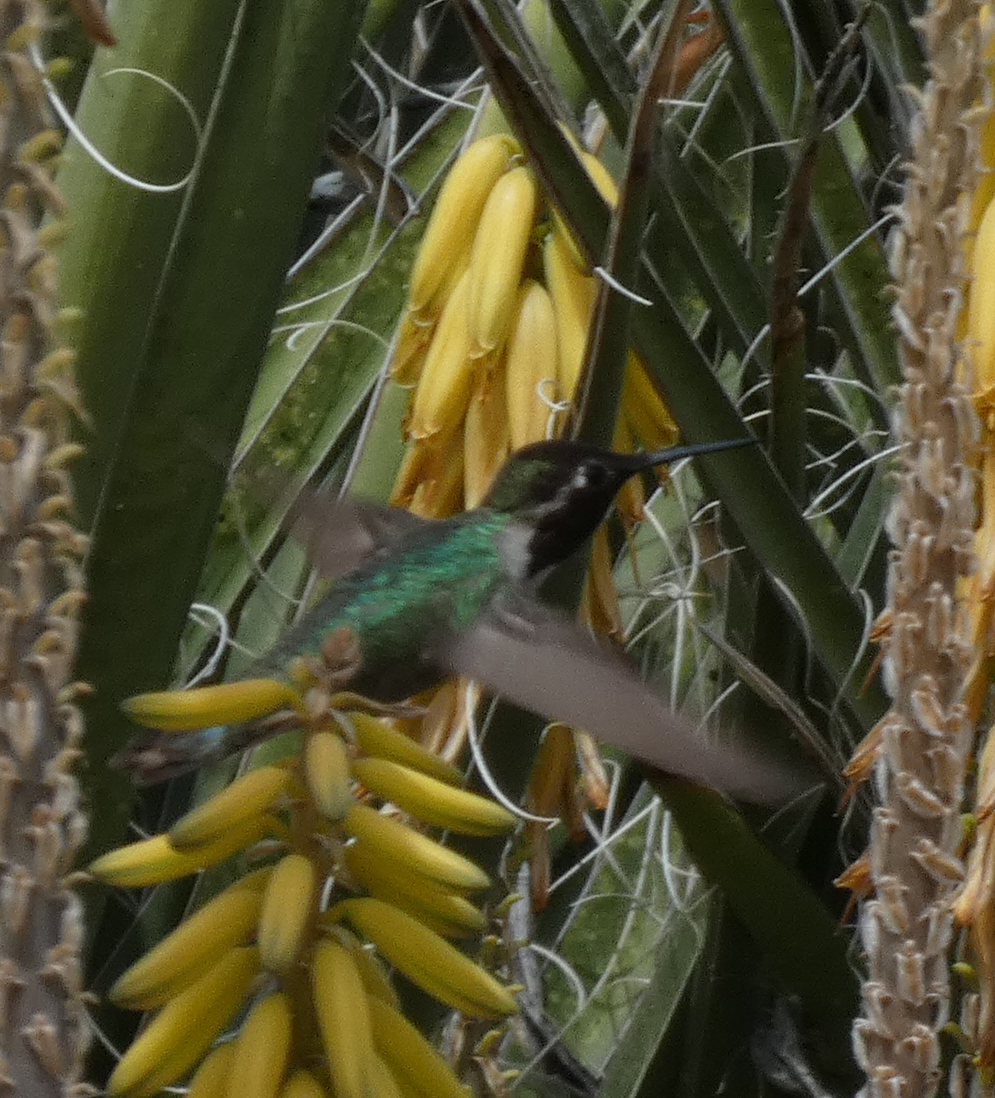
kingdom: Animalia
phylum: Chordata
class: Aves
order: Apodiformes
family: Trochilidae
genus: Calypte
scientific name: Calypte costae
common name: Costa's hummingbird
